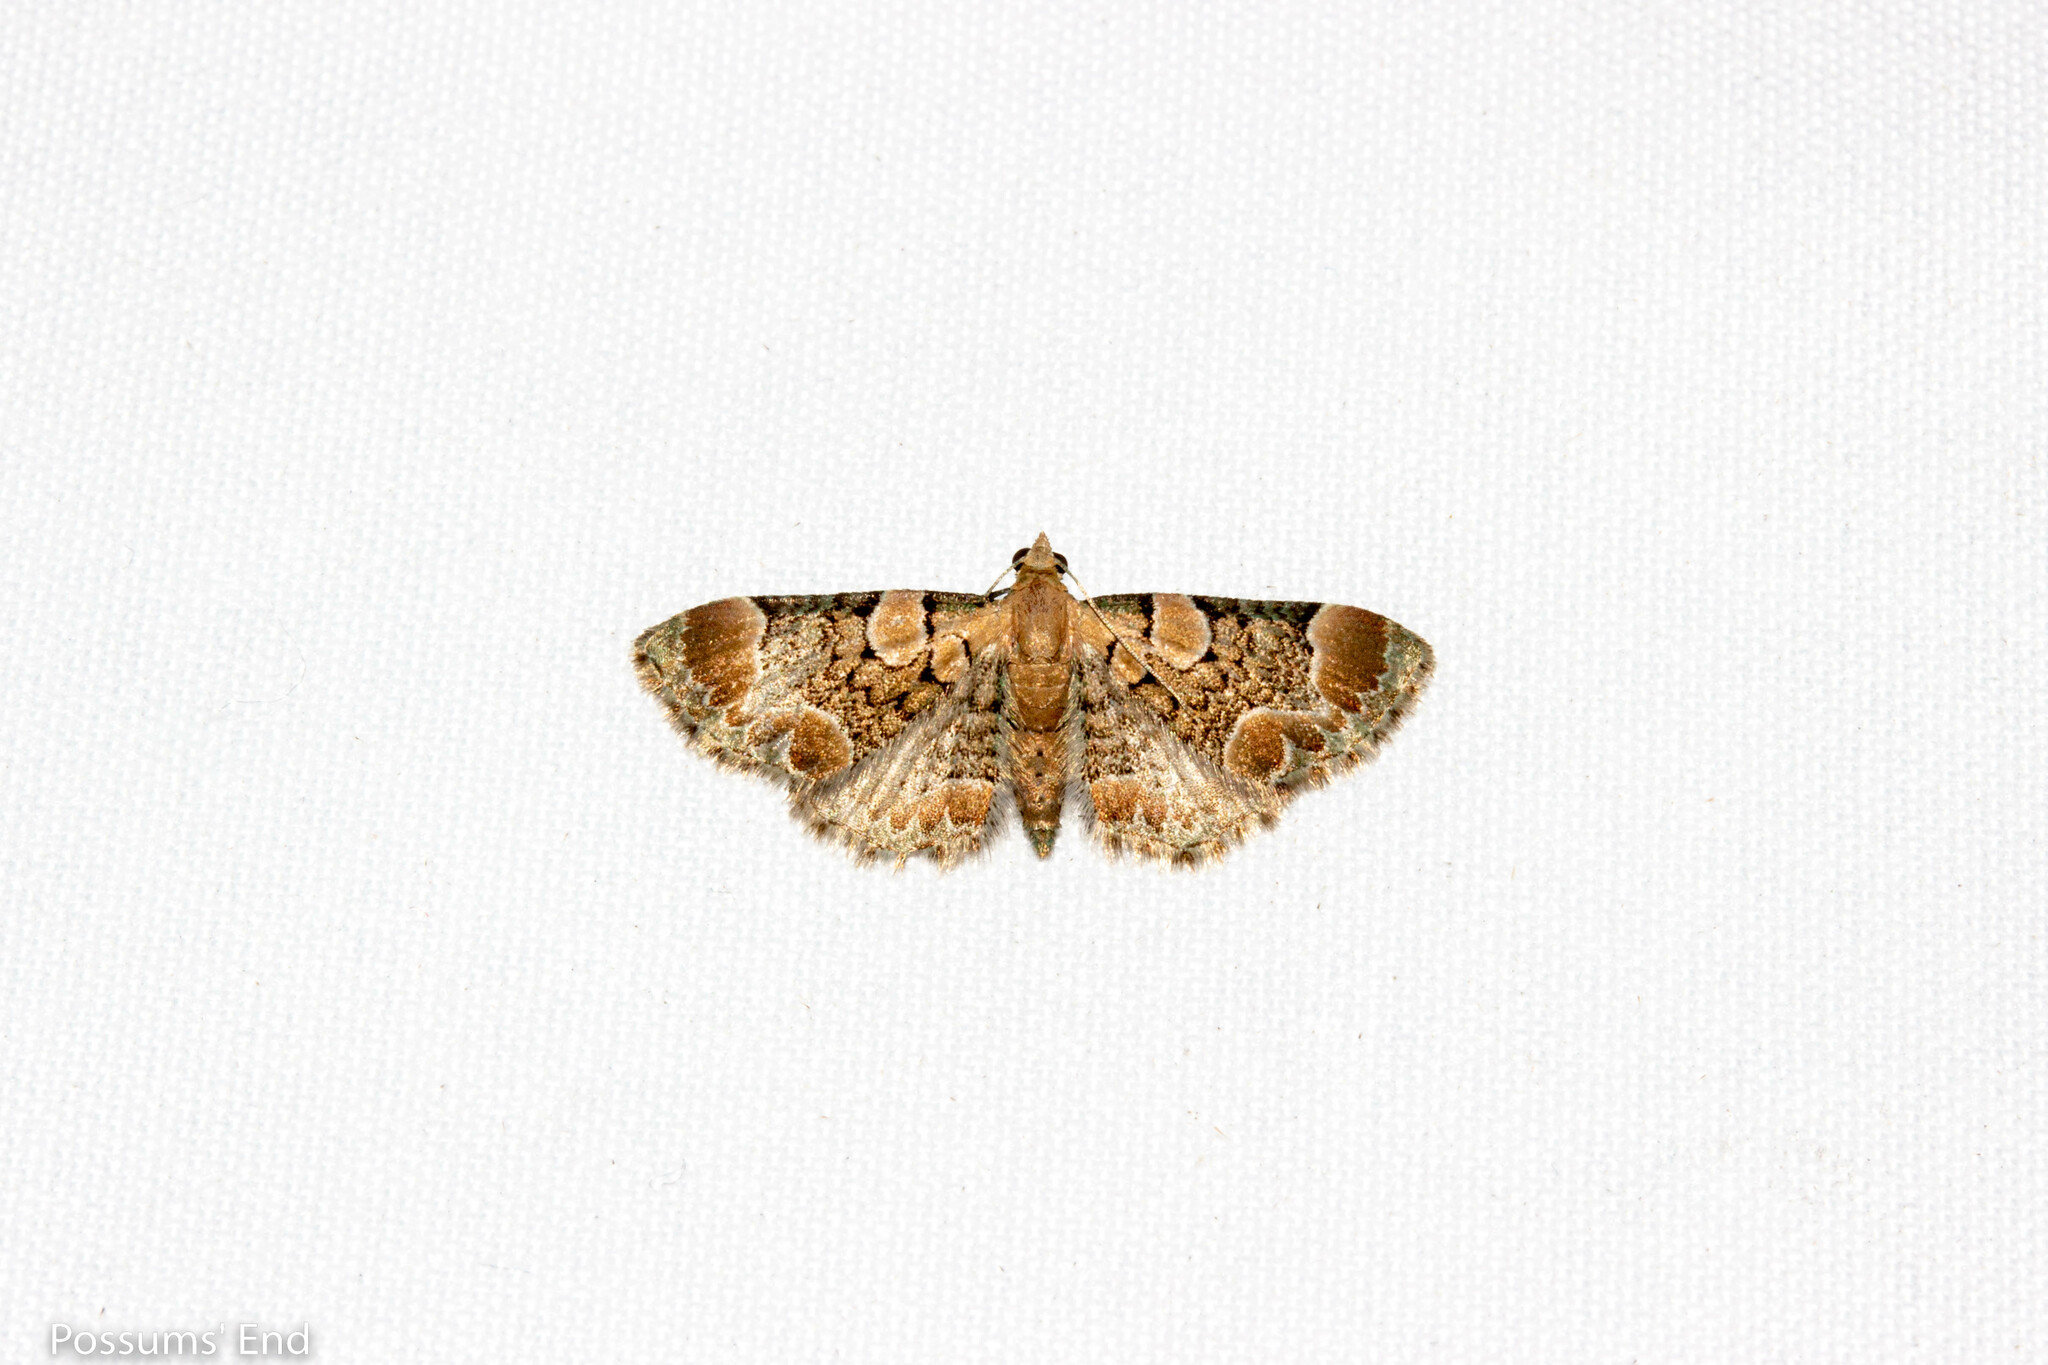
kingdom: Animalia
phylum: Arthropoda
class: Insecta
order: Lepidoptera
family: Geometridae
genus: Chloroclystis
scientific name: Chloroclystis
